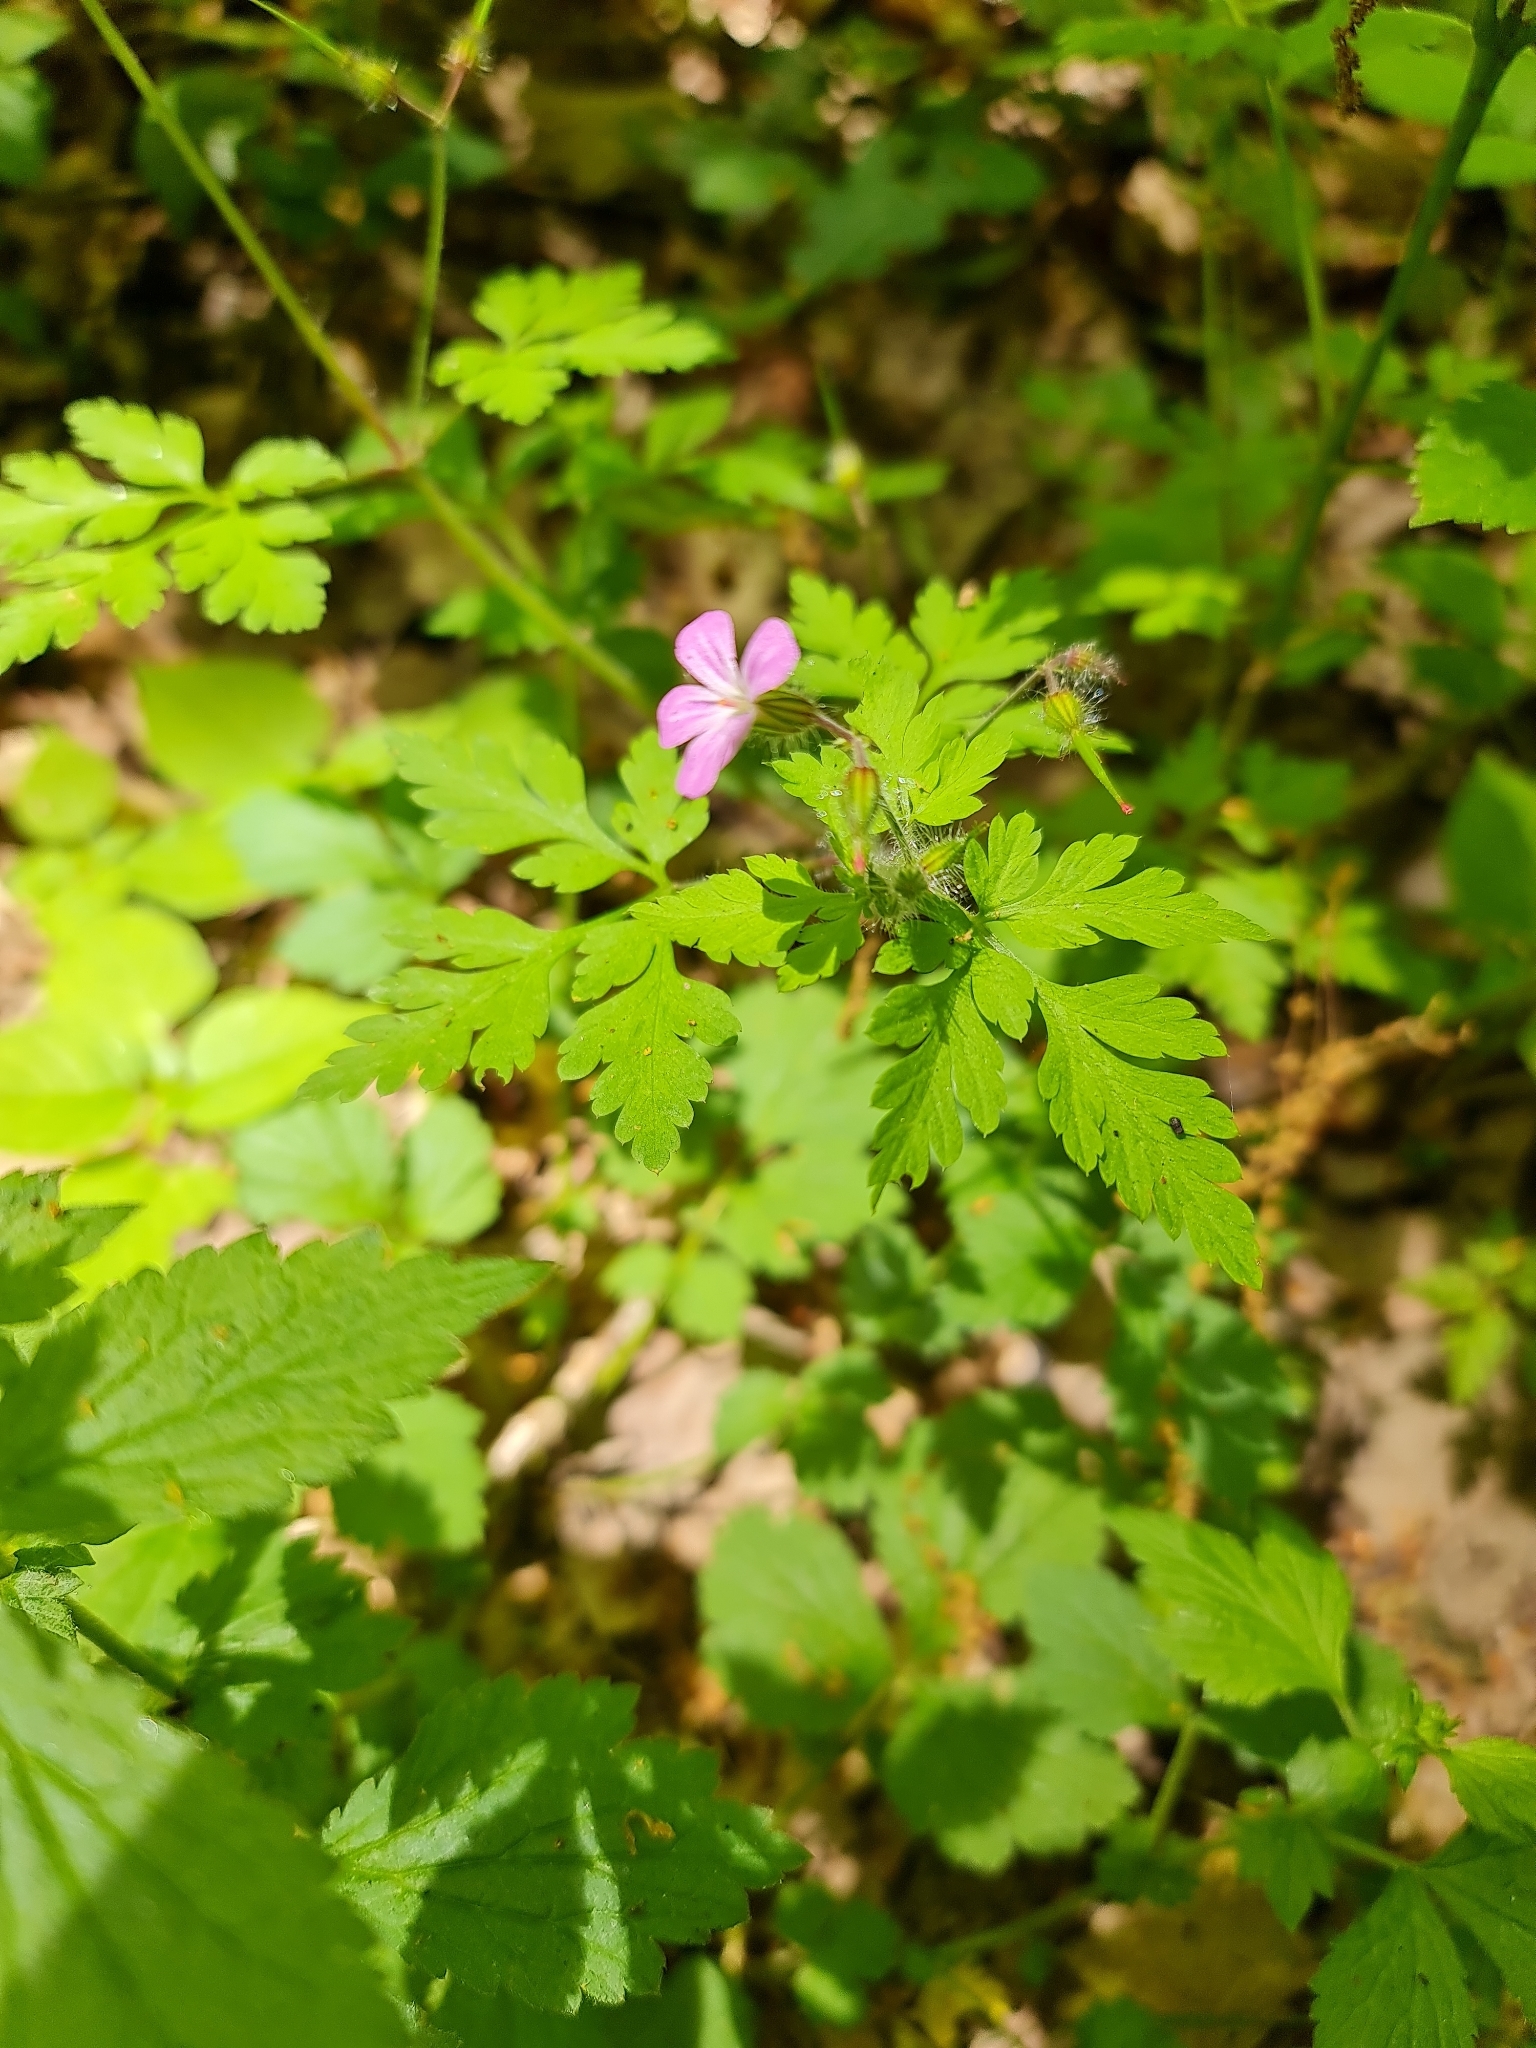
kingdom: Plantae
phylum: Tracheophyta
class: Magnoliopsida
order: Geraniales
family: Geraniaceae
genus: Geranium
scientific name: Geranium robertianum
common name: Herb-robert
